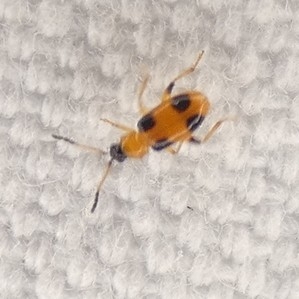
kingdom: Animalia
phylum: Arthropoda
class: Insecta
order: Coleoptera
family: Chrysomelidae
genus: Cornulactica
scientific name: Cornulactica
